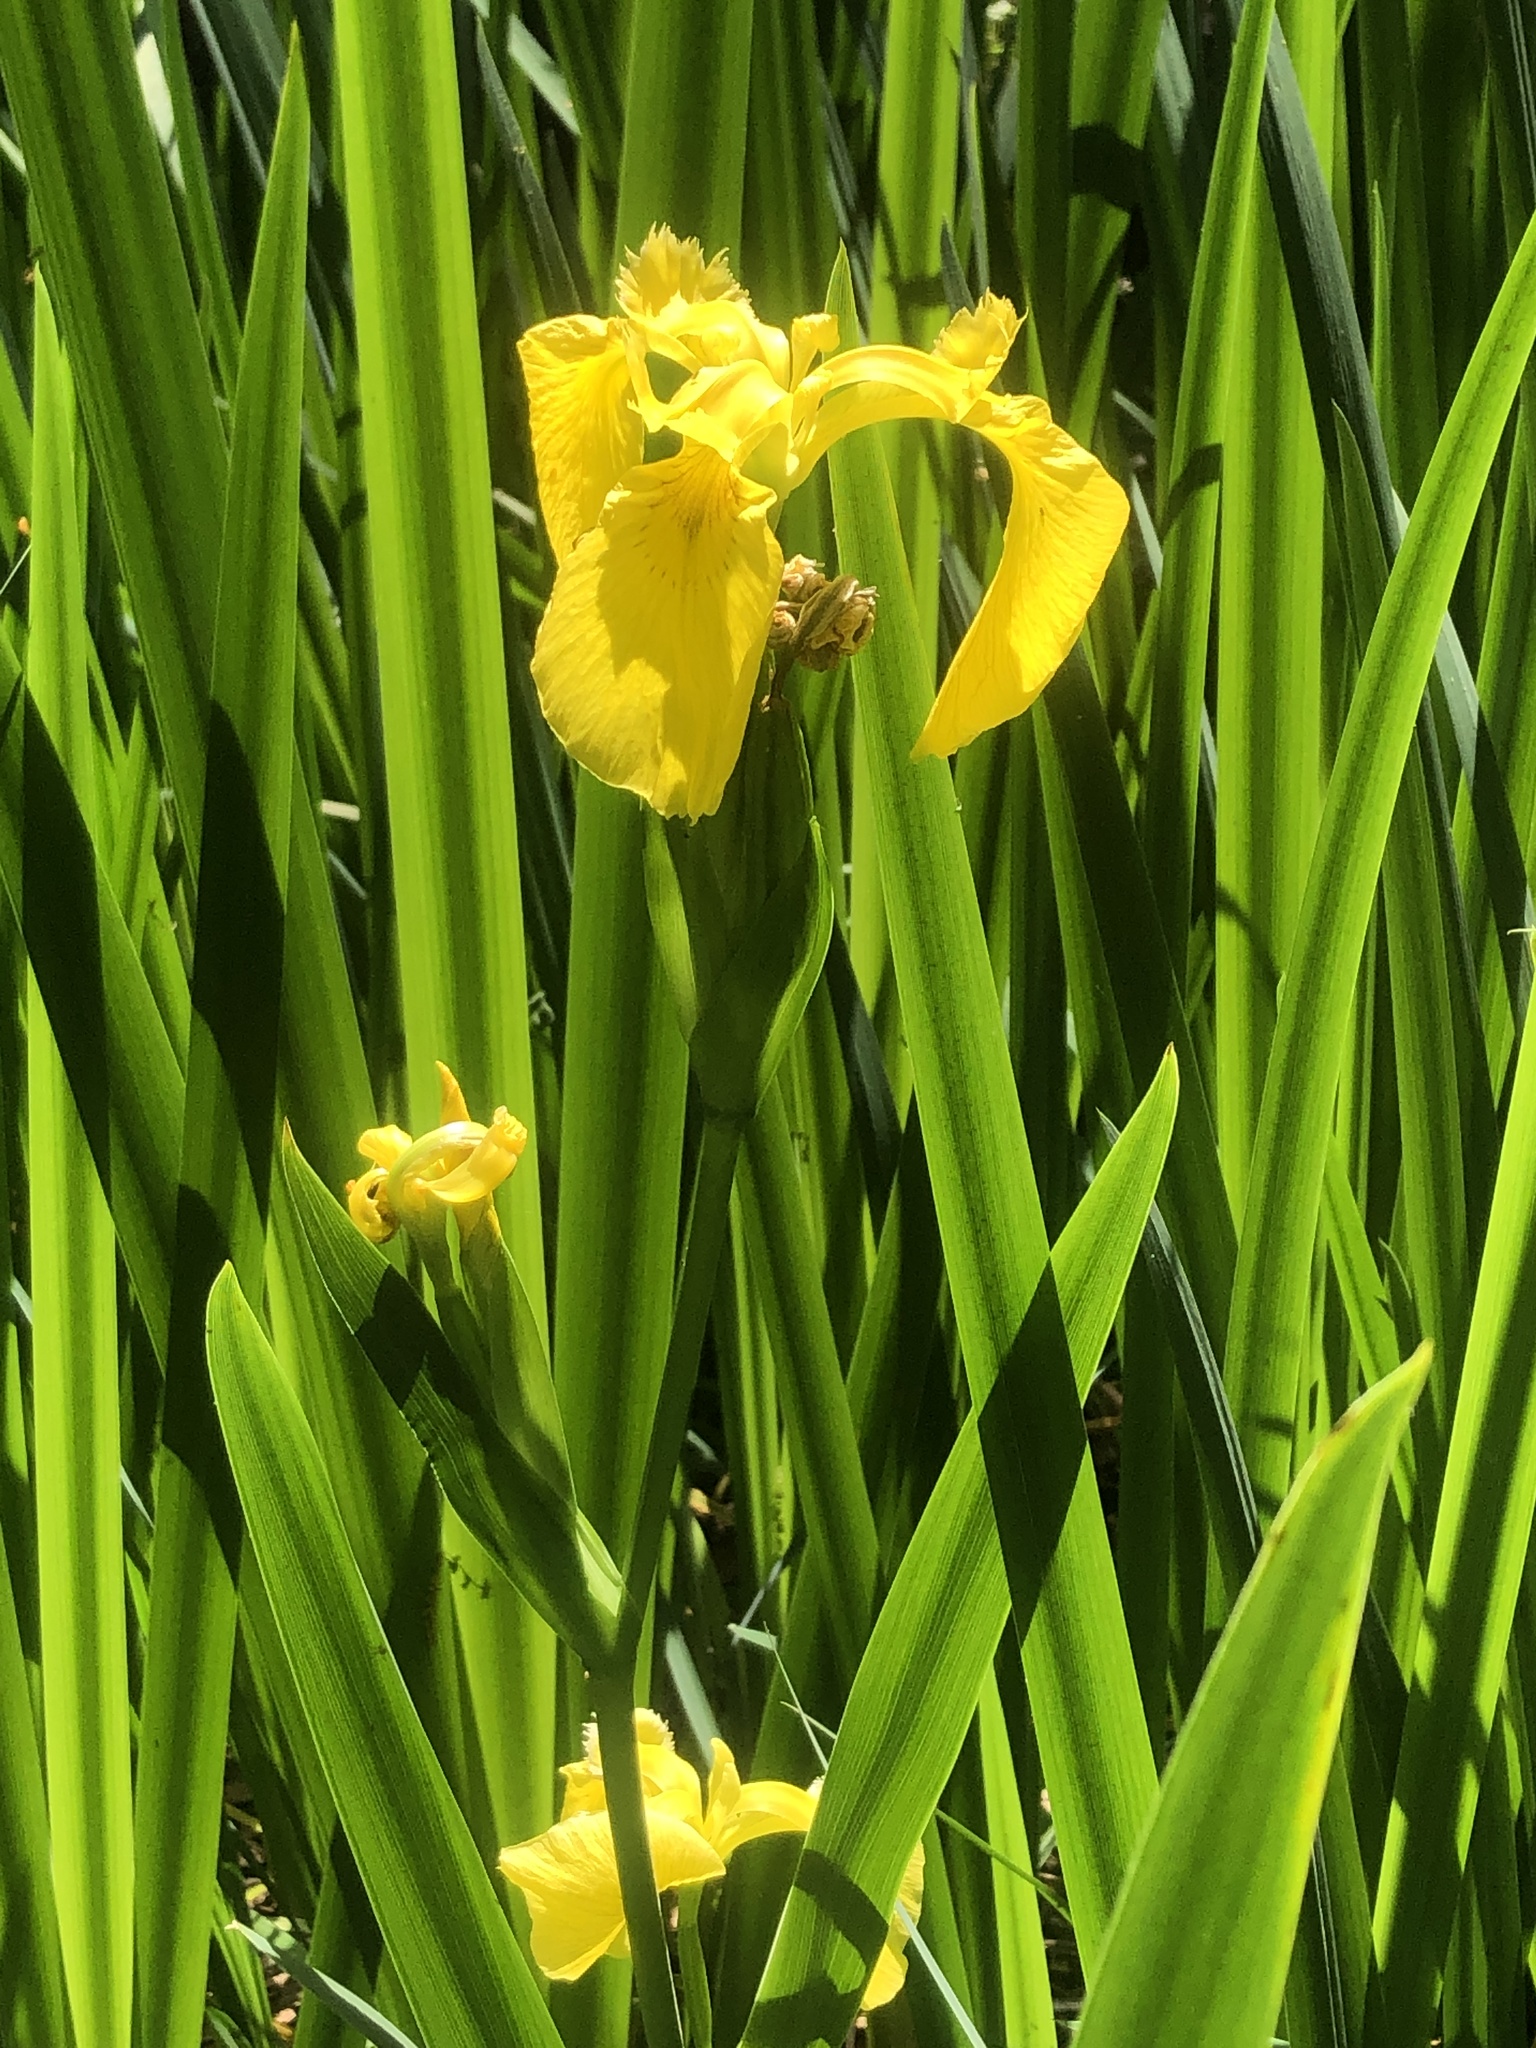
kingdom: Plantae
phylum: Tracheophyta
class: Liliopsida
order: Asparagales
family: Iridaceae
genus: Iris
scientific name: Iris pseudacorus
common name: Yellow flag
